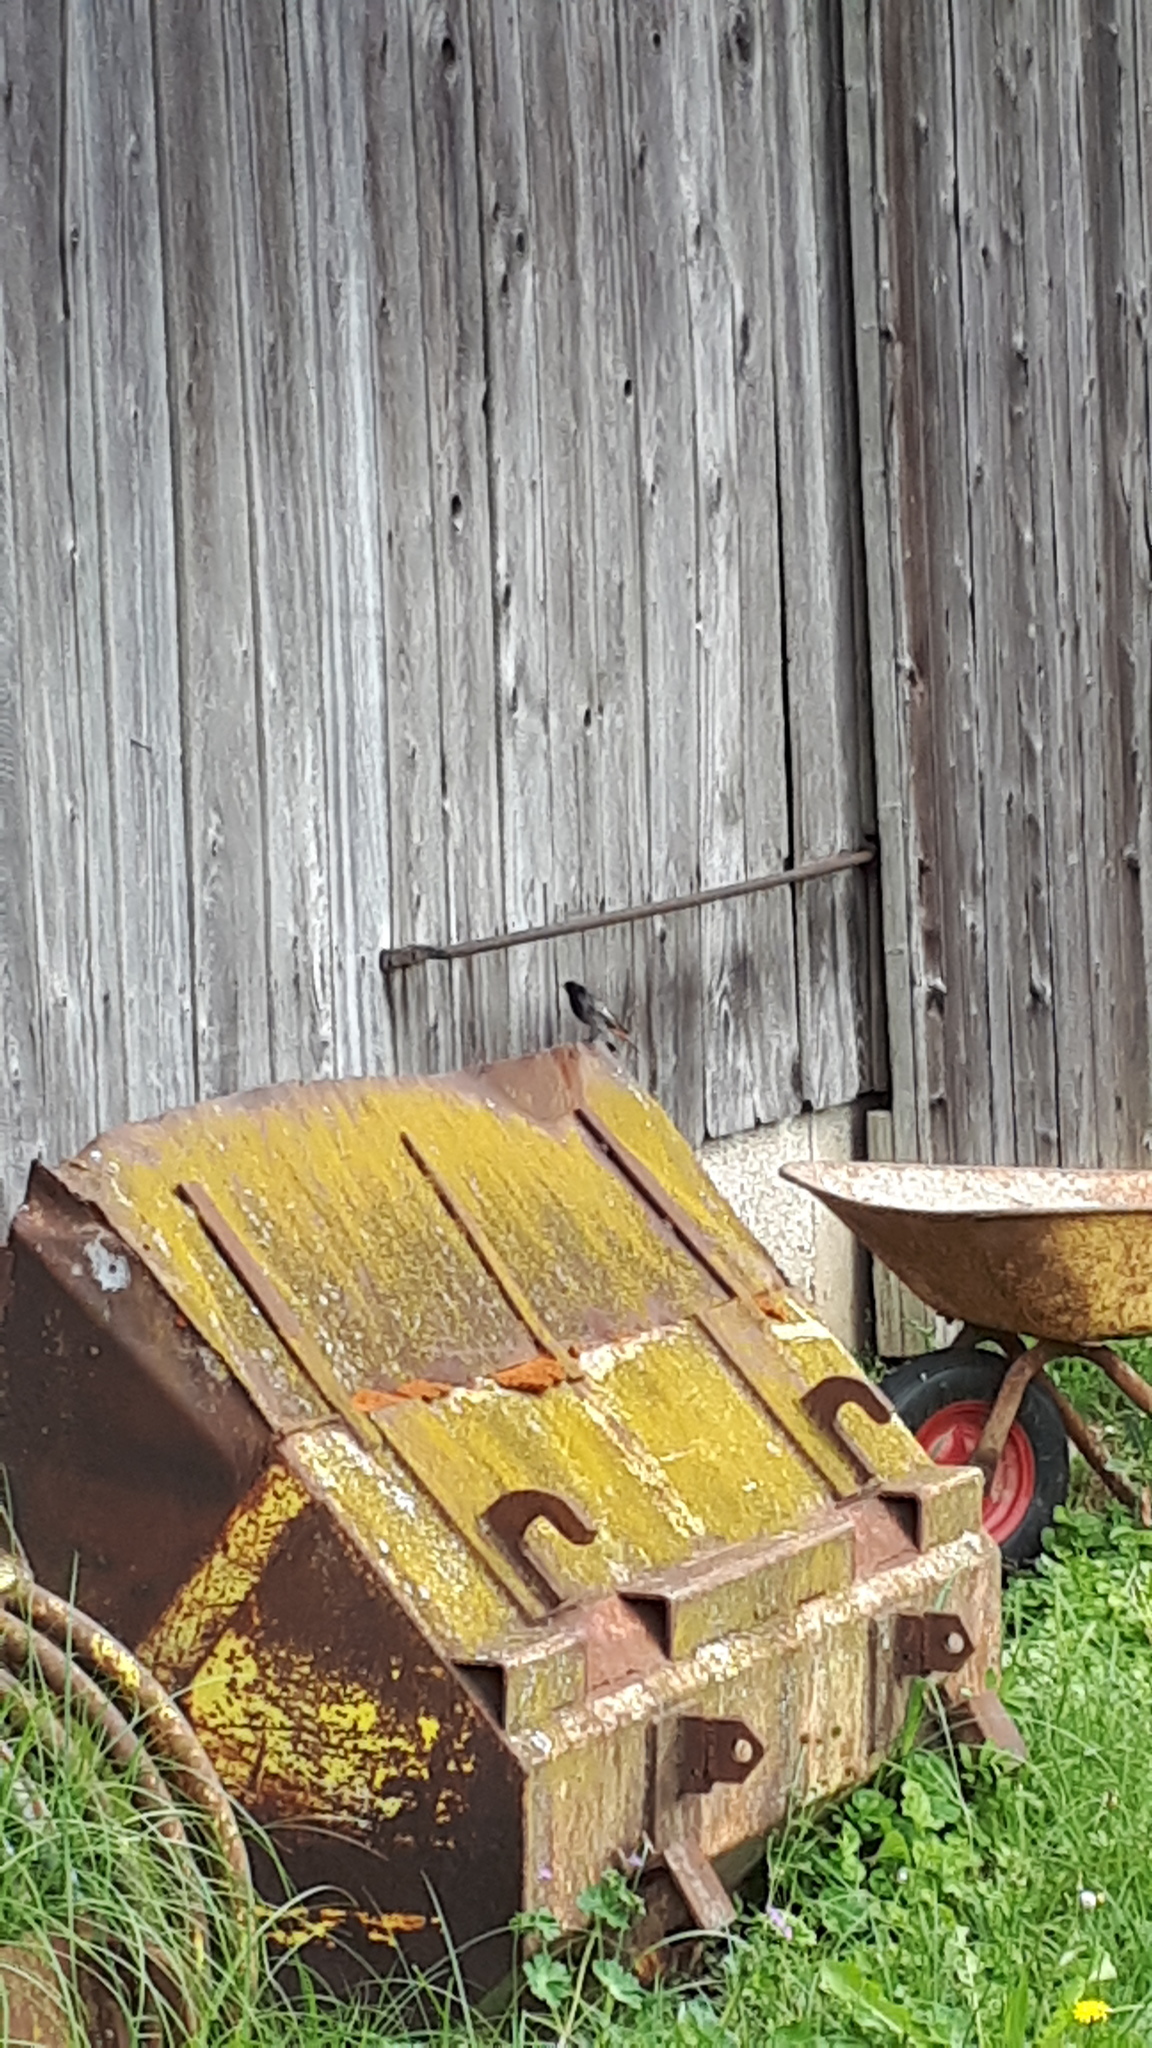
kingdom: Animalia
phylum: Chordata
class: Aves
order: Passeriformes
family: Muscicapidae
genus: Phoenicurus
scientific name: Phoenicurus ochruros
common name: Black redstart
